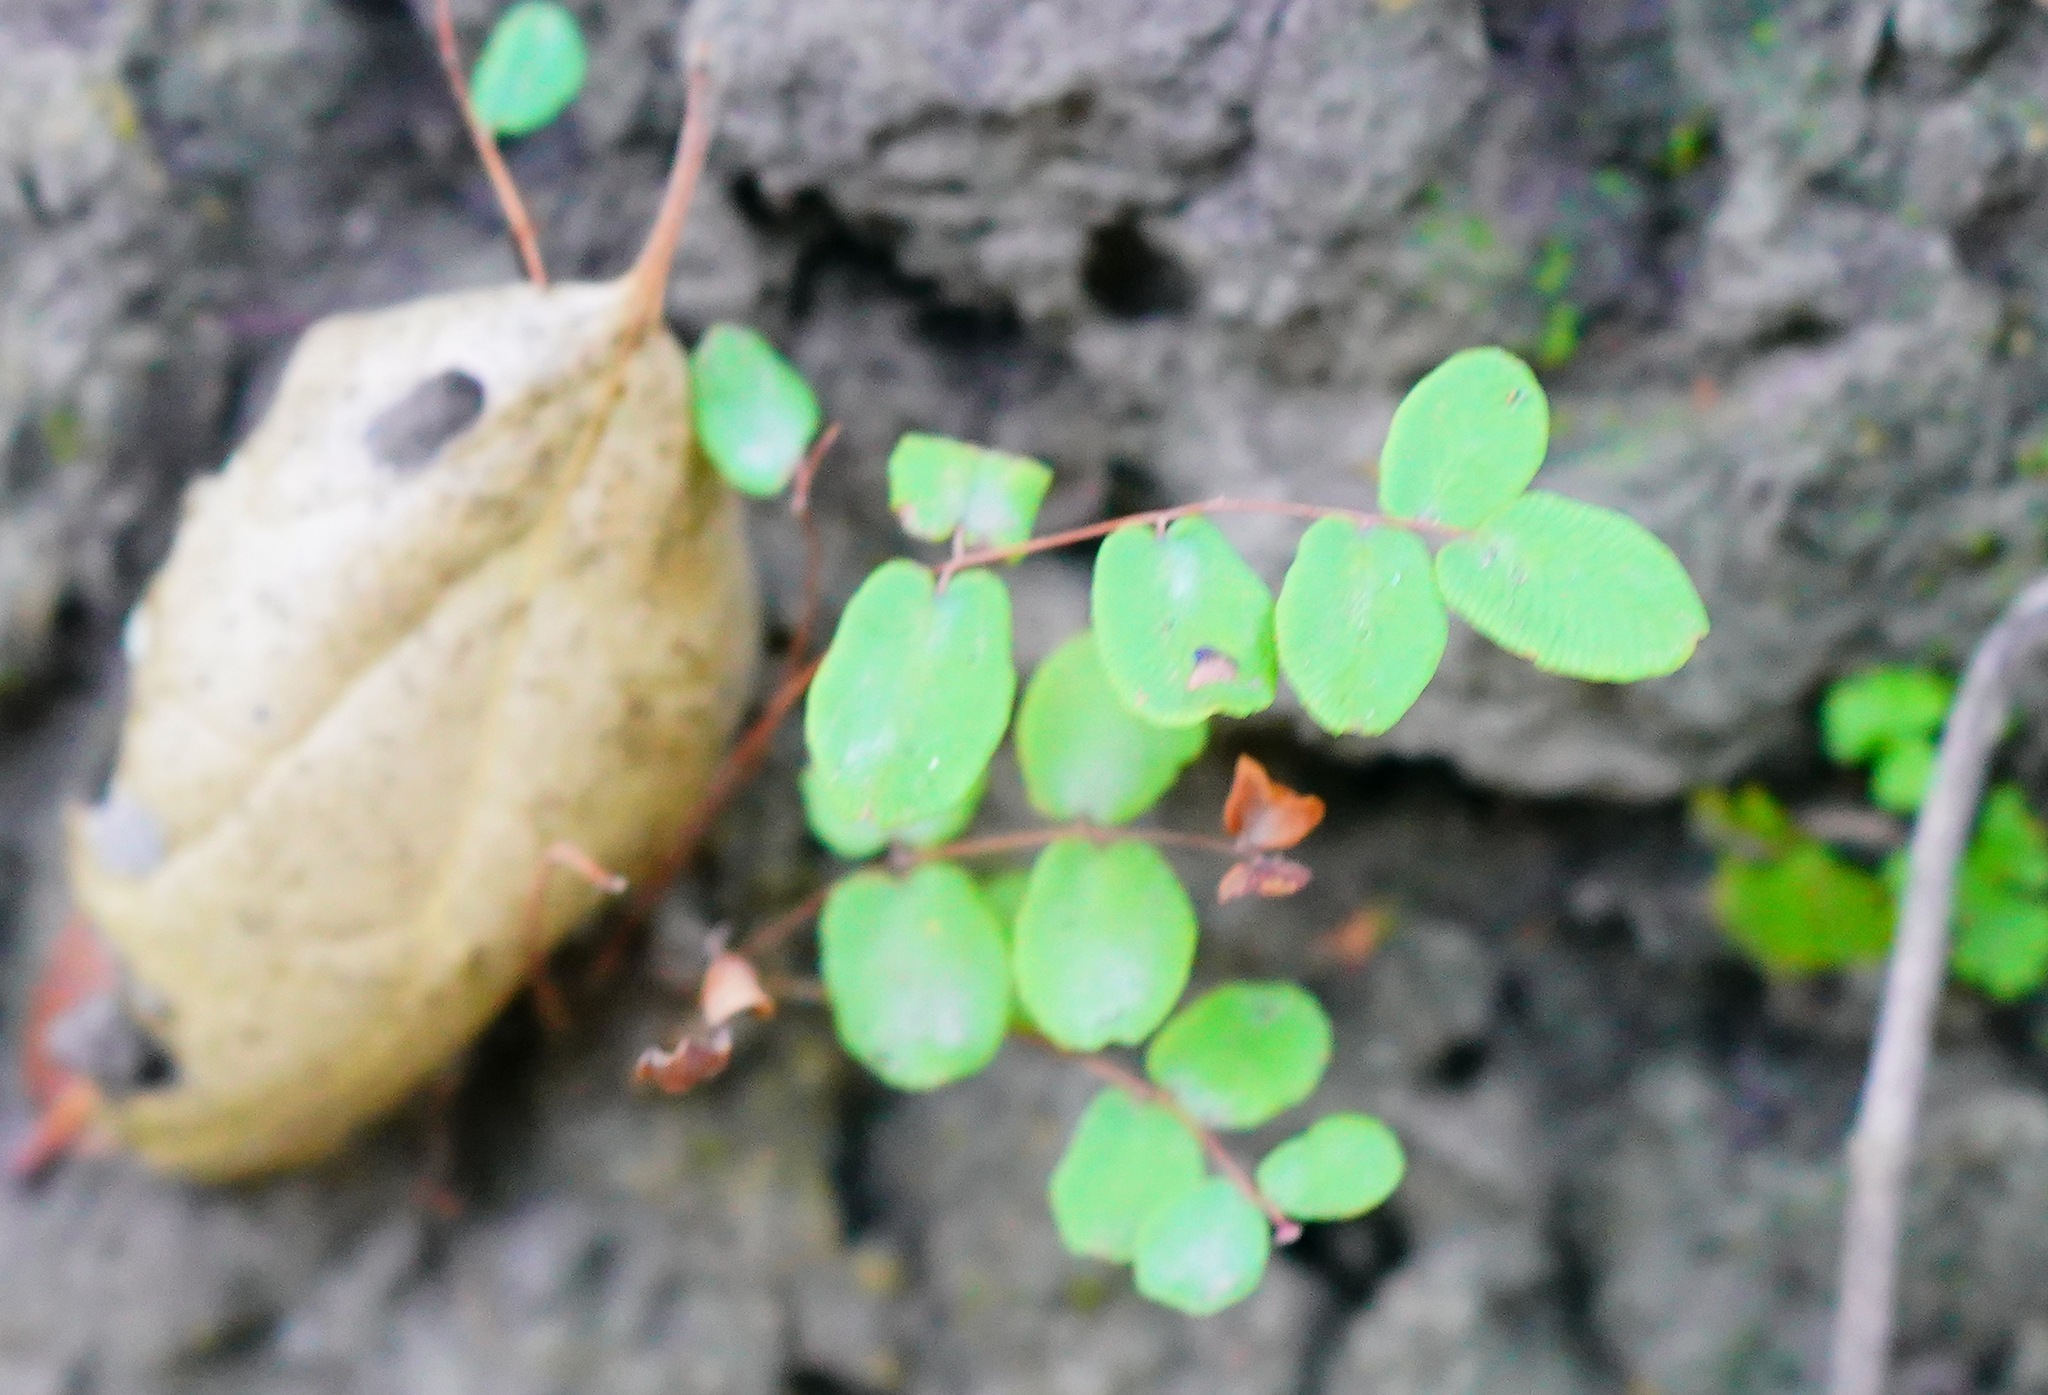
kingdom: Plantae
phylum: Tracheophyta
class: Polypodiopsida
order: Polypodiales
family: Pteridaceae
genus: Pellaea
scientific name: Pellaea andromedifolia
